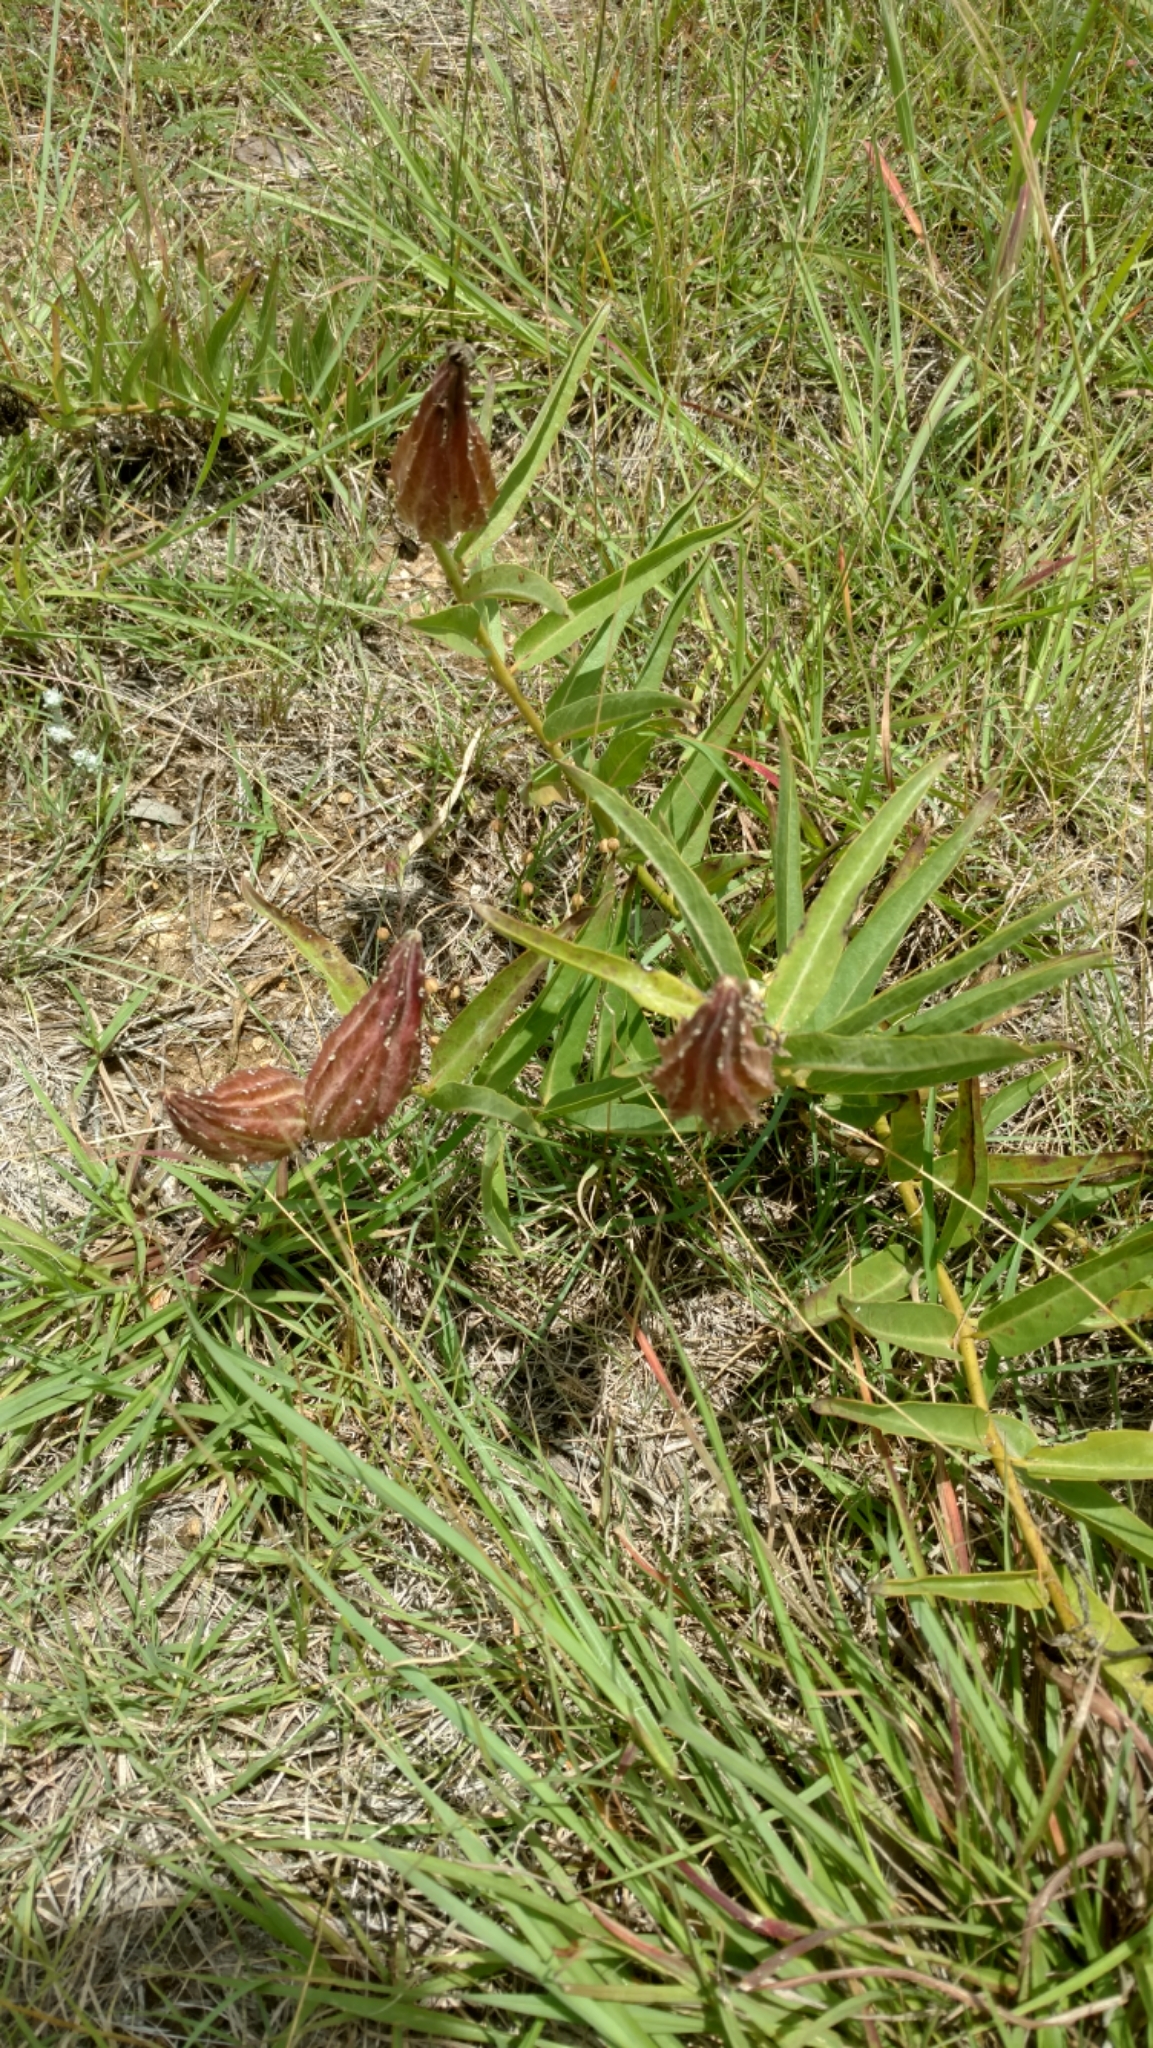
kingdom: Plantae
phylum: Tracheophyta
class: Magnoliopsida
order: Gentianales
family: Apocynaceae
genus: Asclepias
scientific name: Asclepias asperula
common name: Antelope horns
